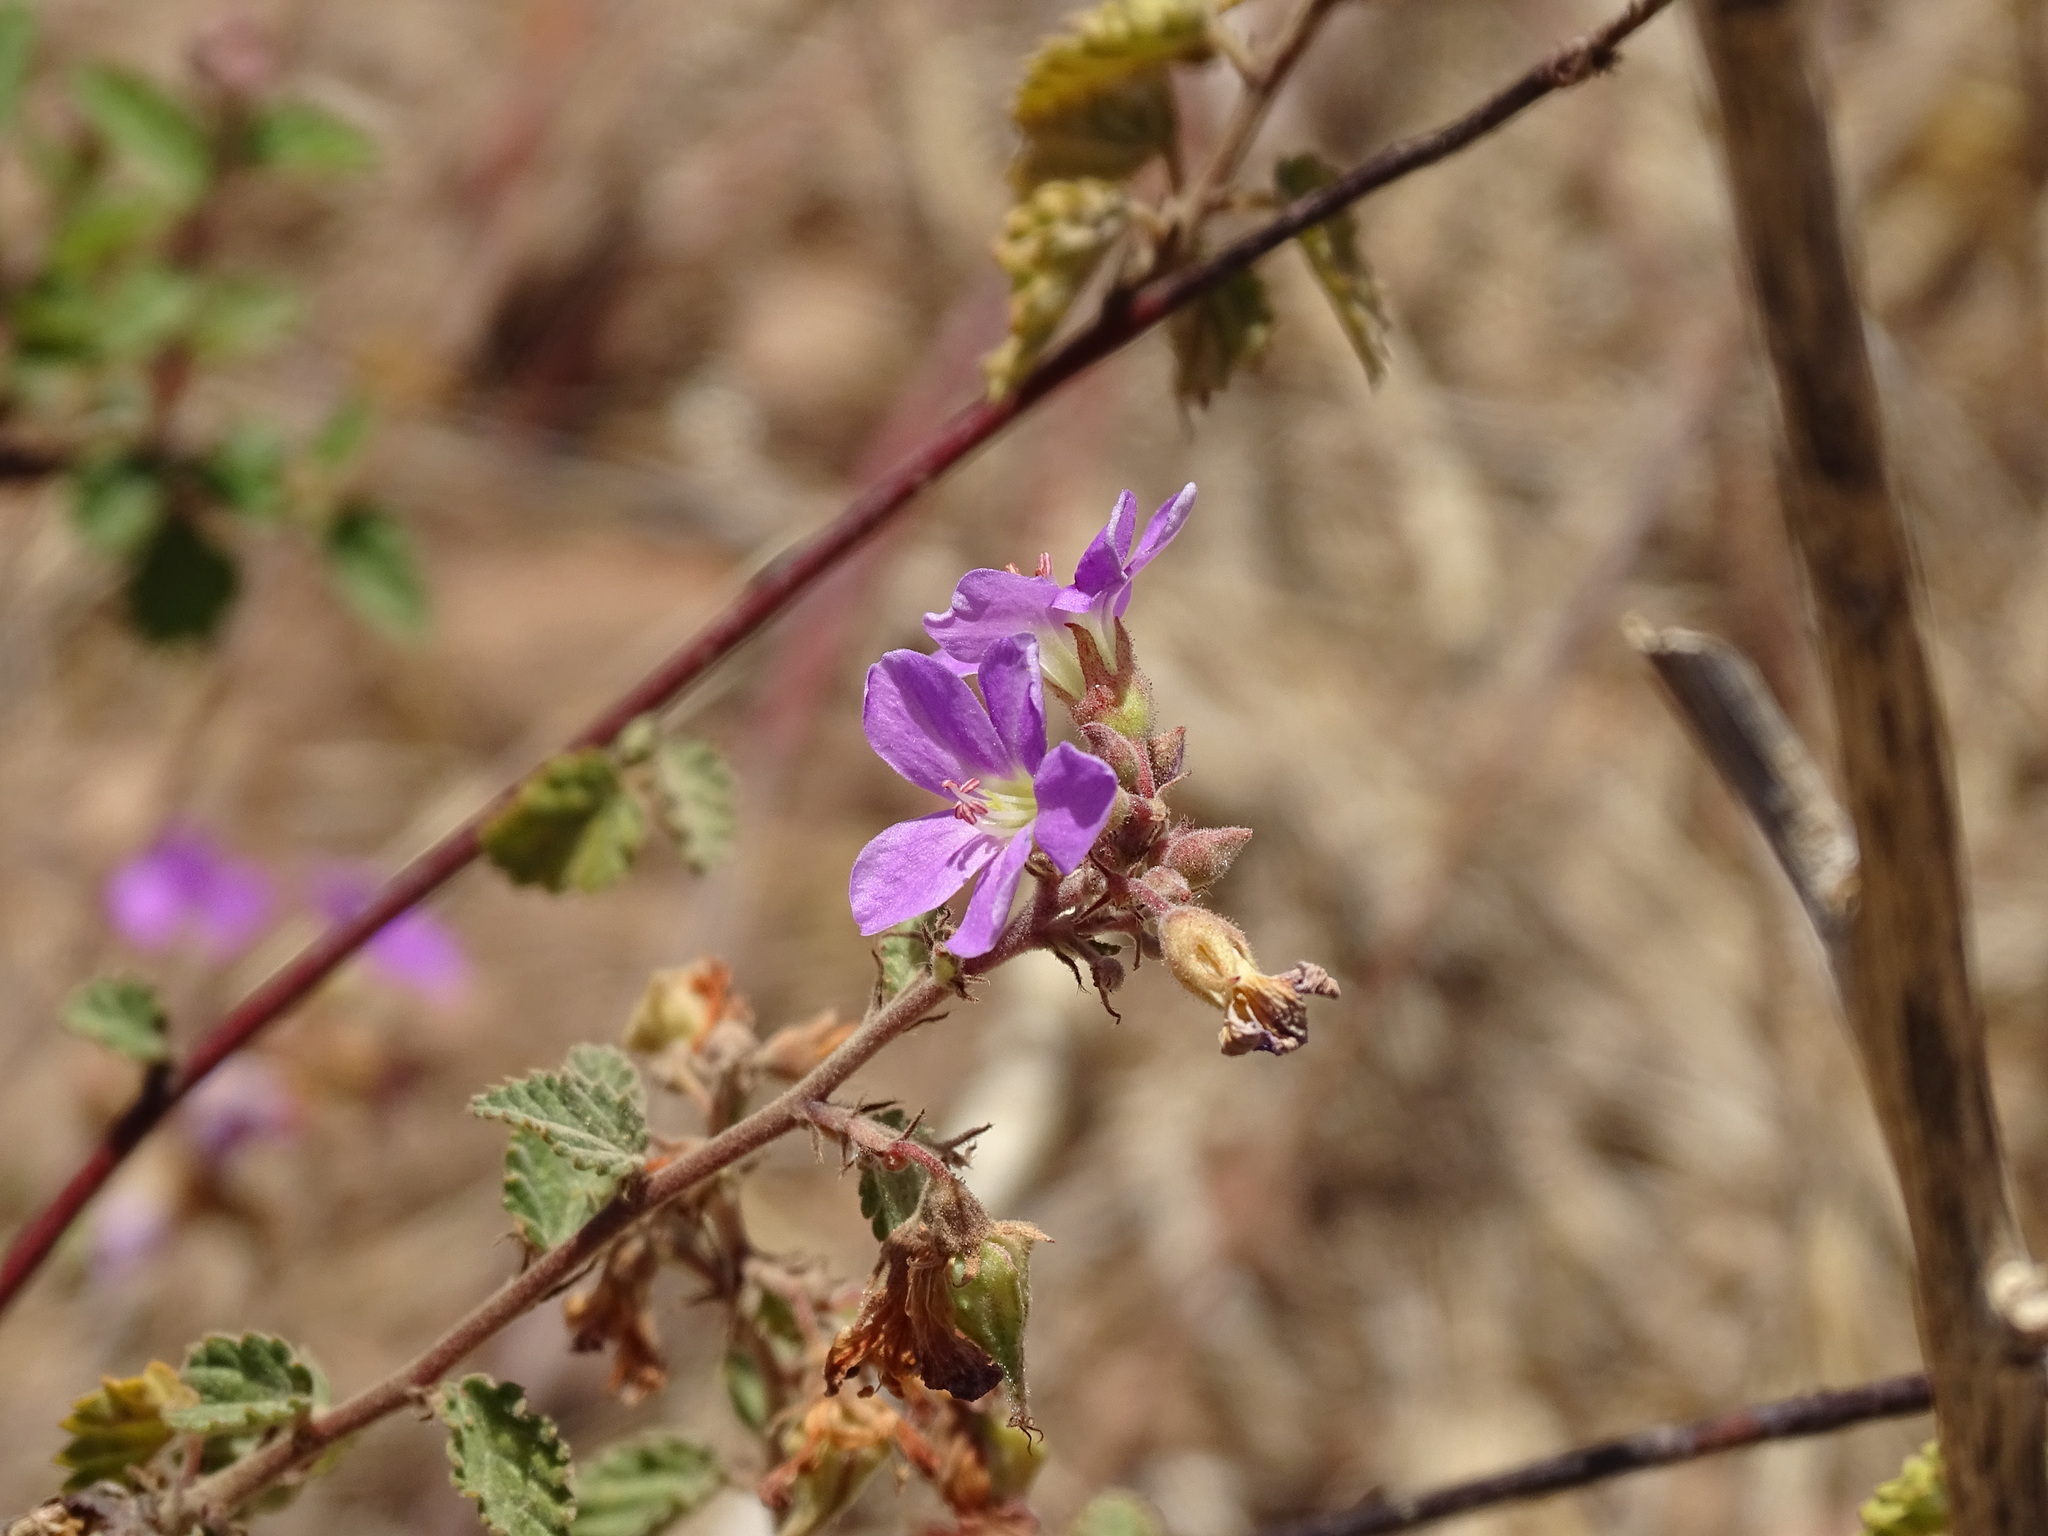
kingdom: Plantae
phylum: Tracheophyta
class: Magnoliopsida
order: Malvales
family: Malvaceae
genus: Melochia
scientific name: Melochia tomentosa
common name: Black torch
